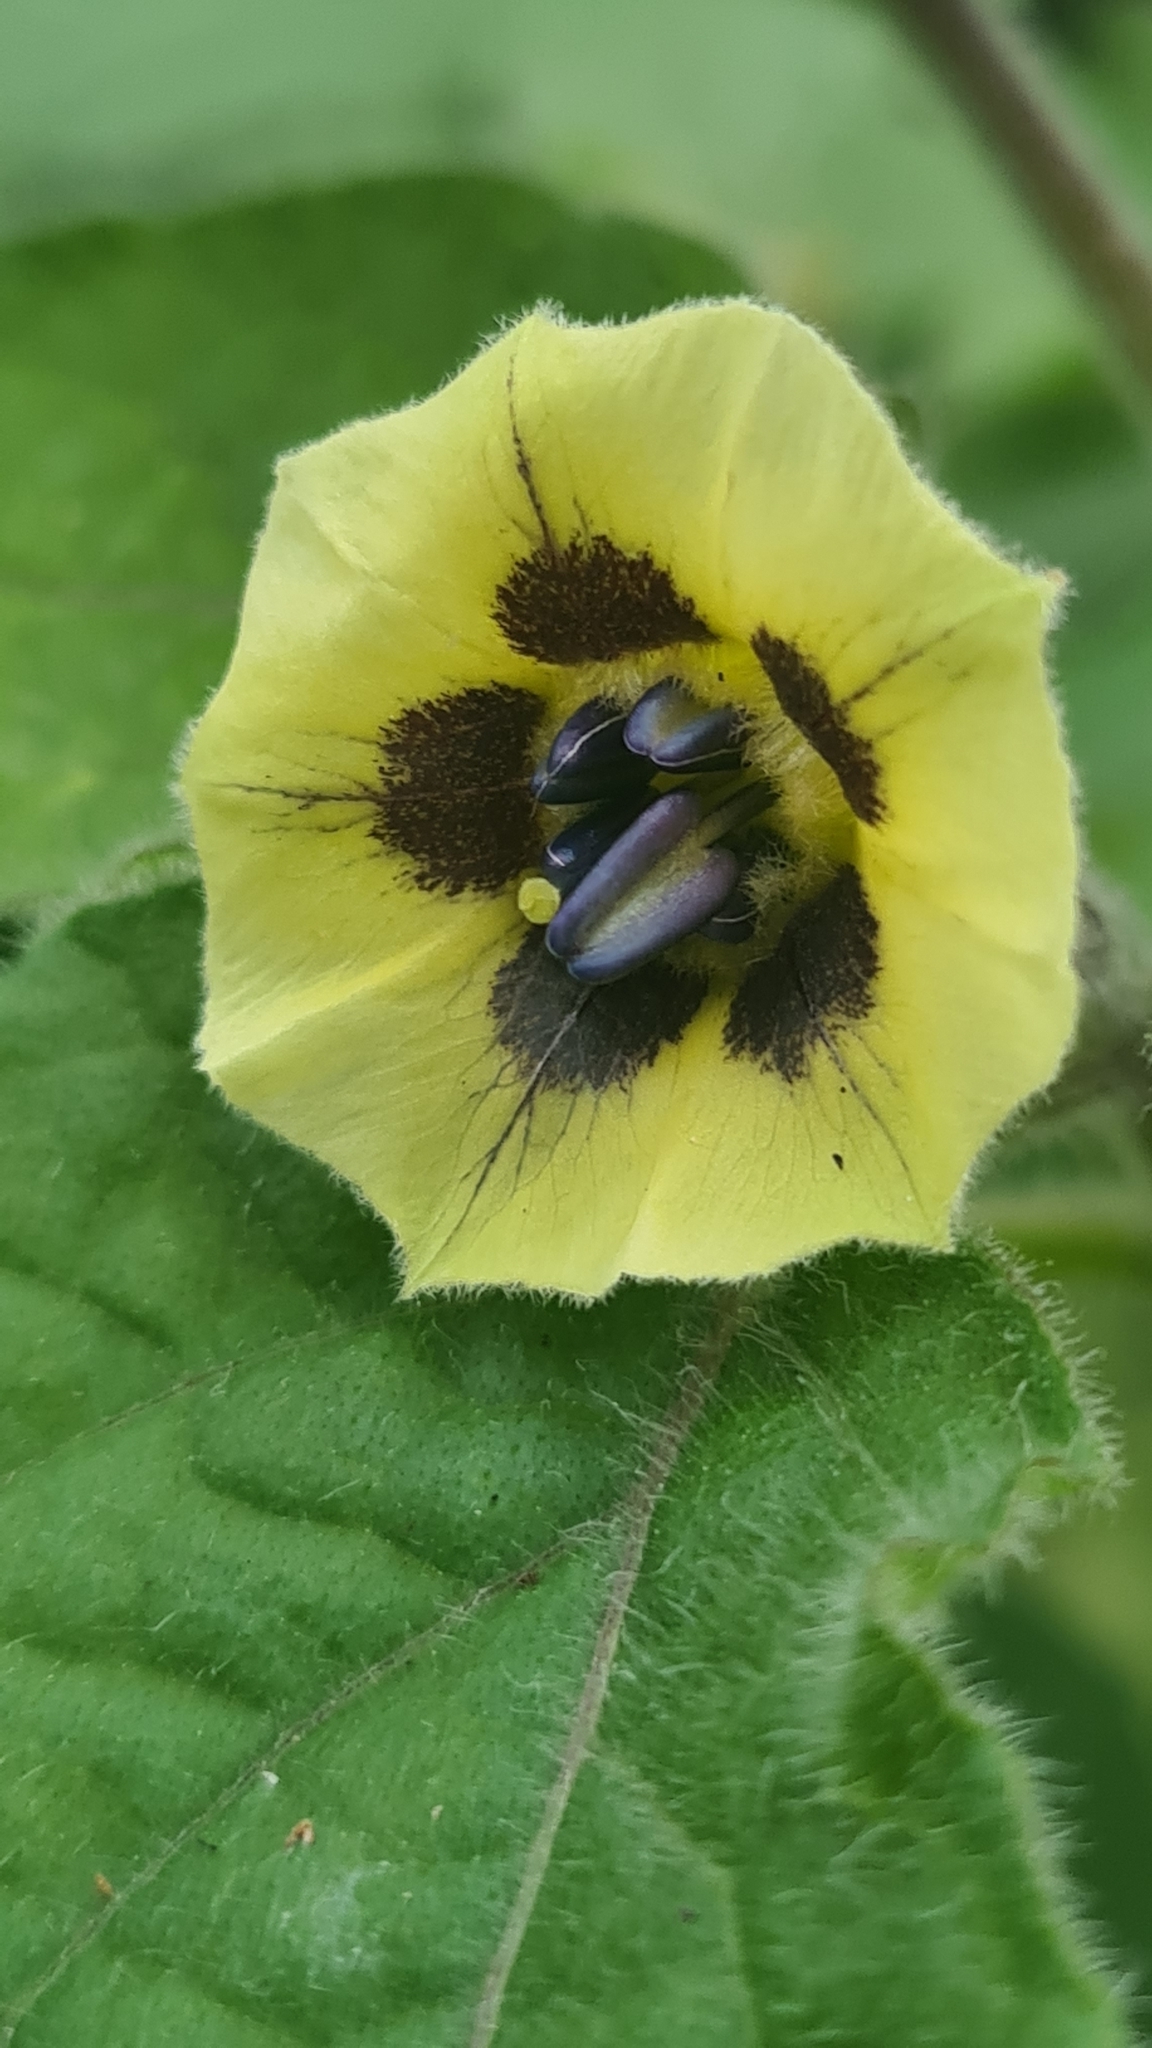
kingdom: Plantae
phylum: Tracheophyta
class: Magnoliopsida
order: Solanales
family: Solanaceae
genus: Physalis
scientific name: Physalis peruviana
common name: Cape-gooseberry
